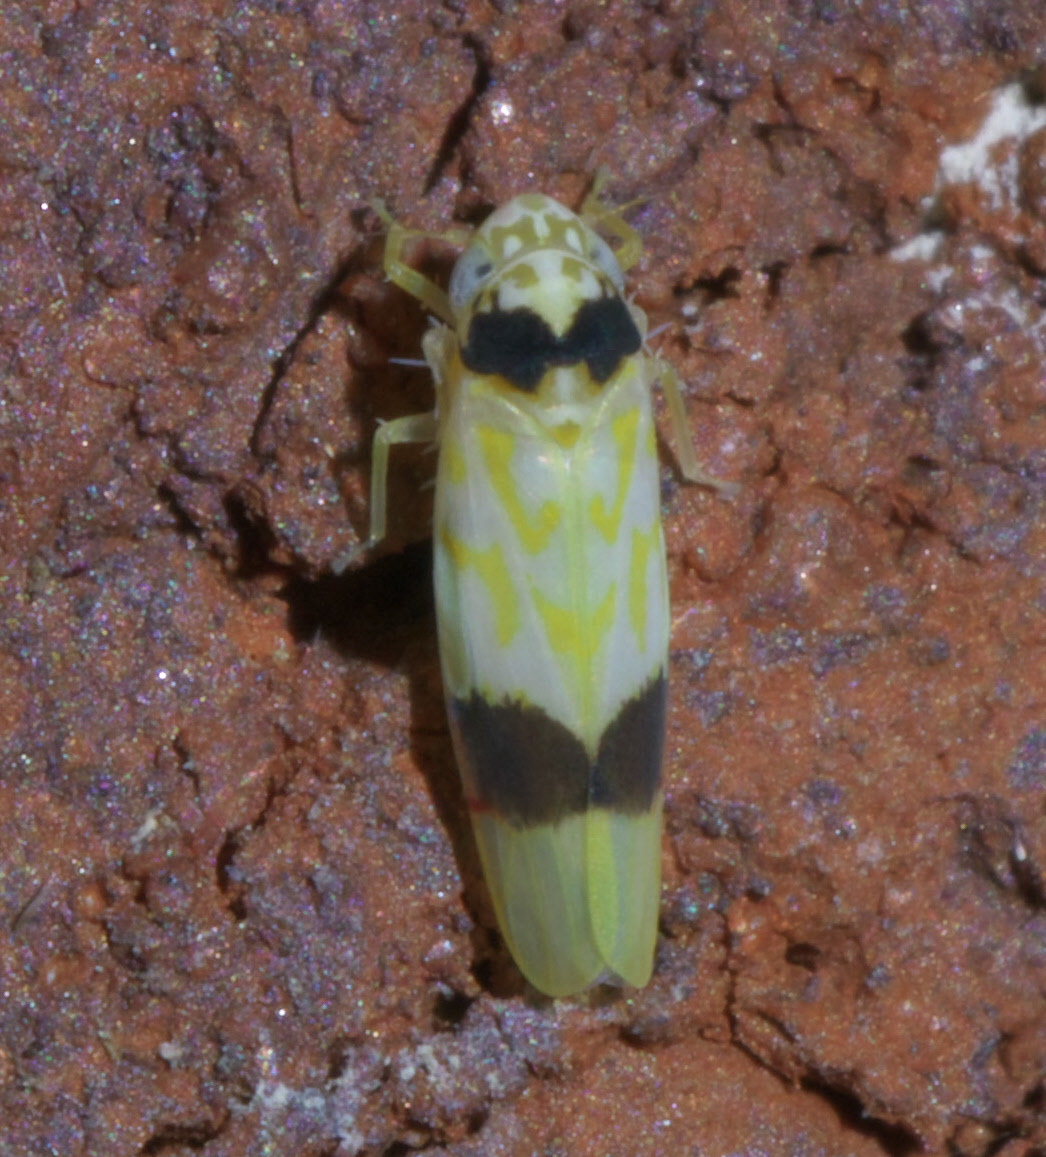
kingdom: Animalia
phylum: Arthropoda
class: Insecta
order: Hemiptera
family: Cicadellidae
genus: Eratoneura
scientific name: Eratoneura morgani
